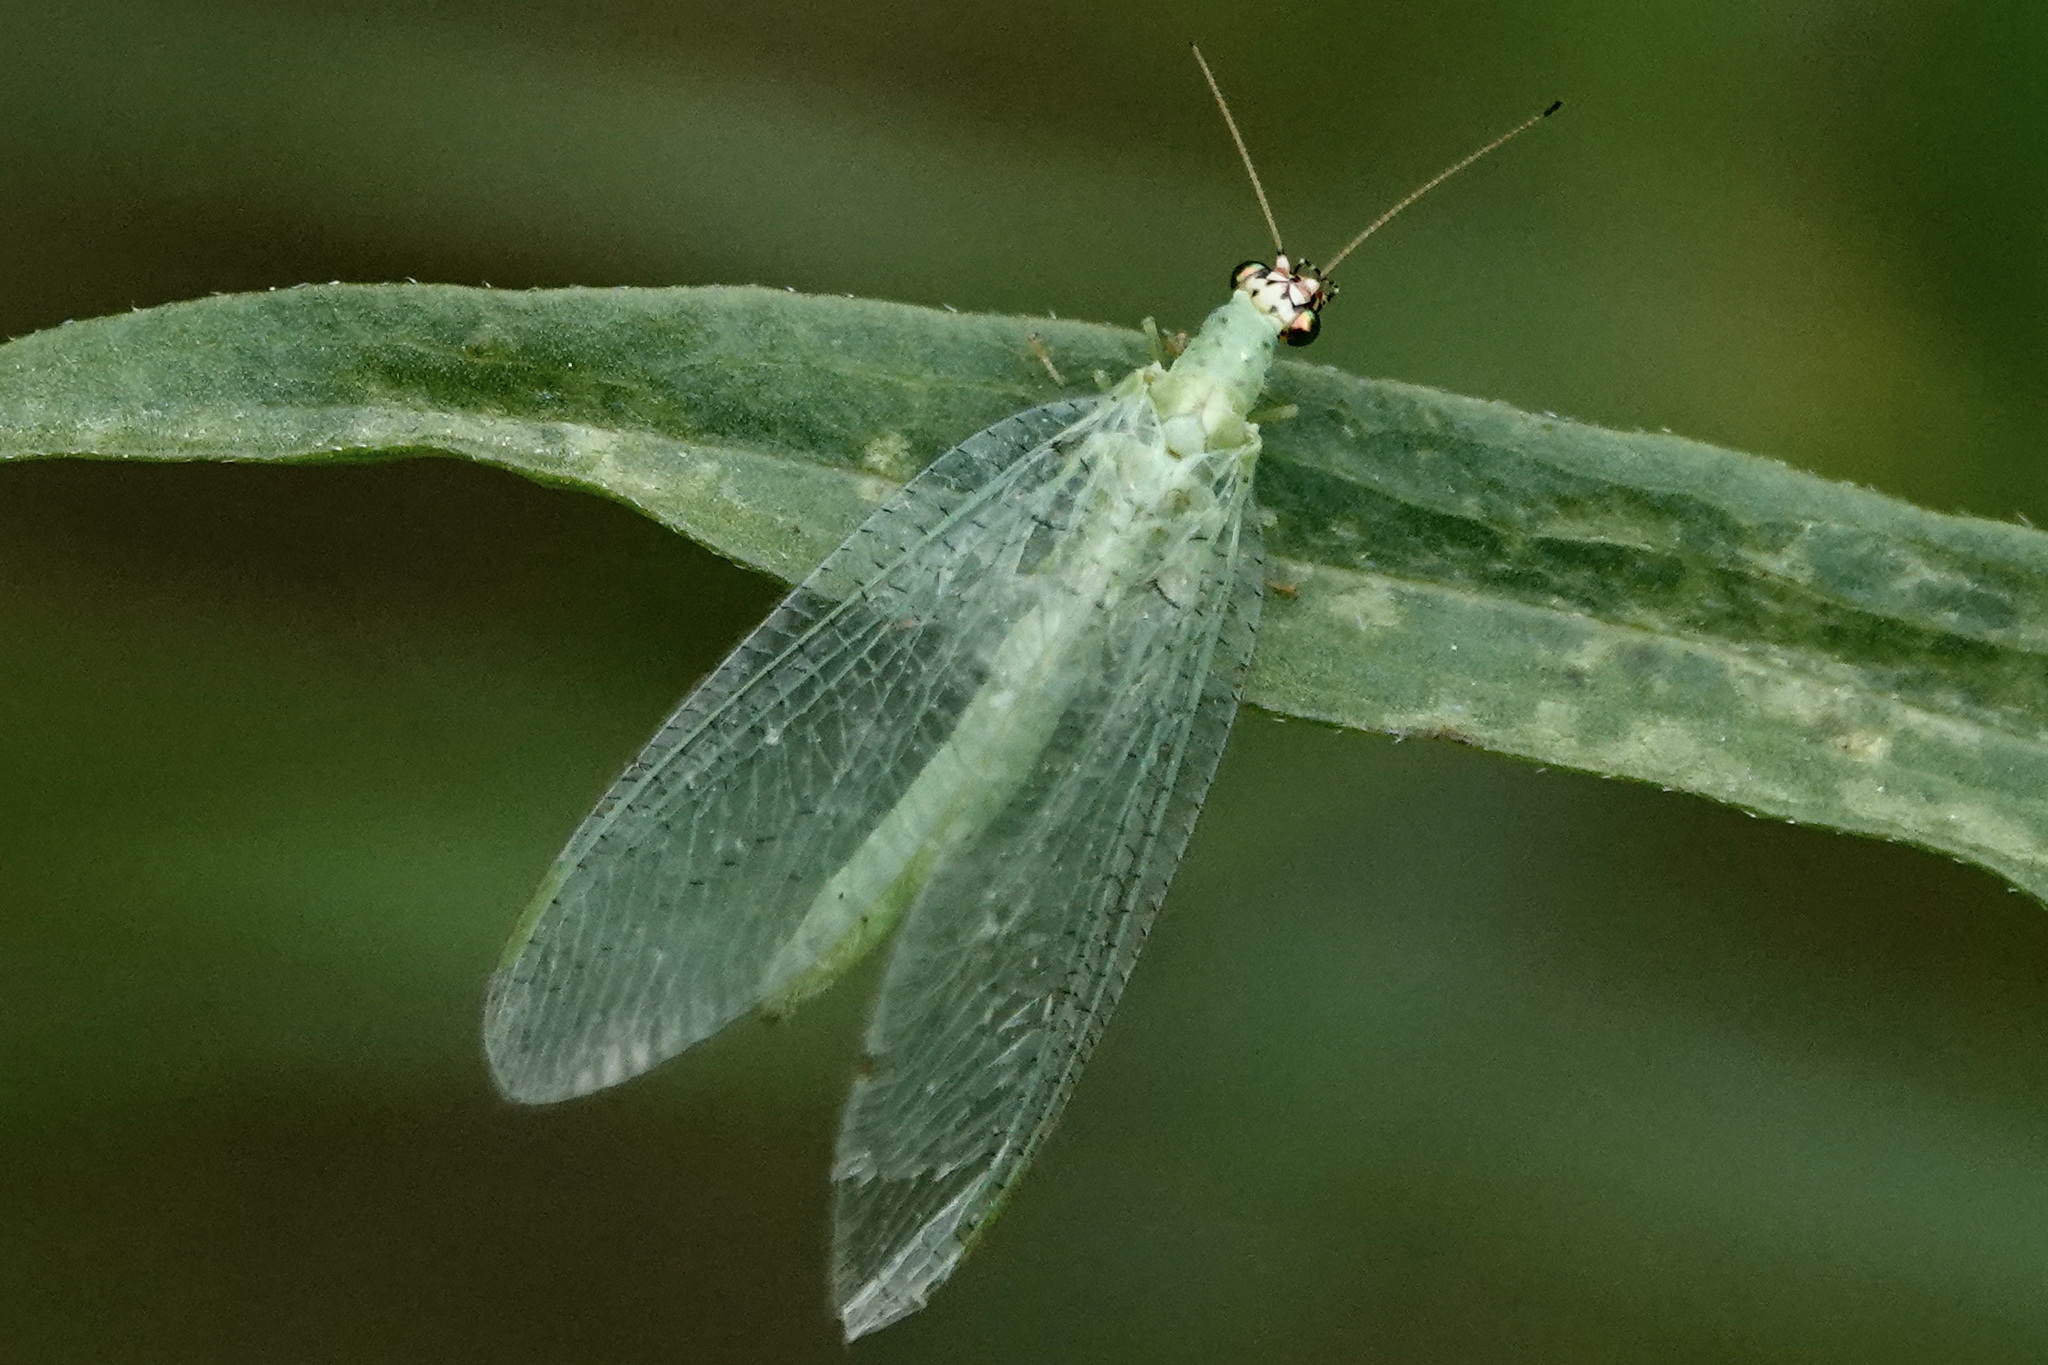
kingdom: Animalia
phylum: Arthropoda
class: Insecta
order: Neuroptera
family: Chrysopidae
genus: Chrysopa
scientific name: Chrysopa oculata
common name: Golden-eyed lacewing
